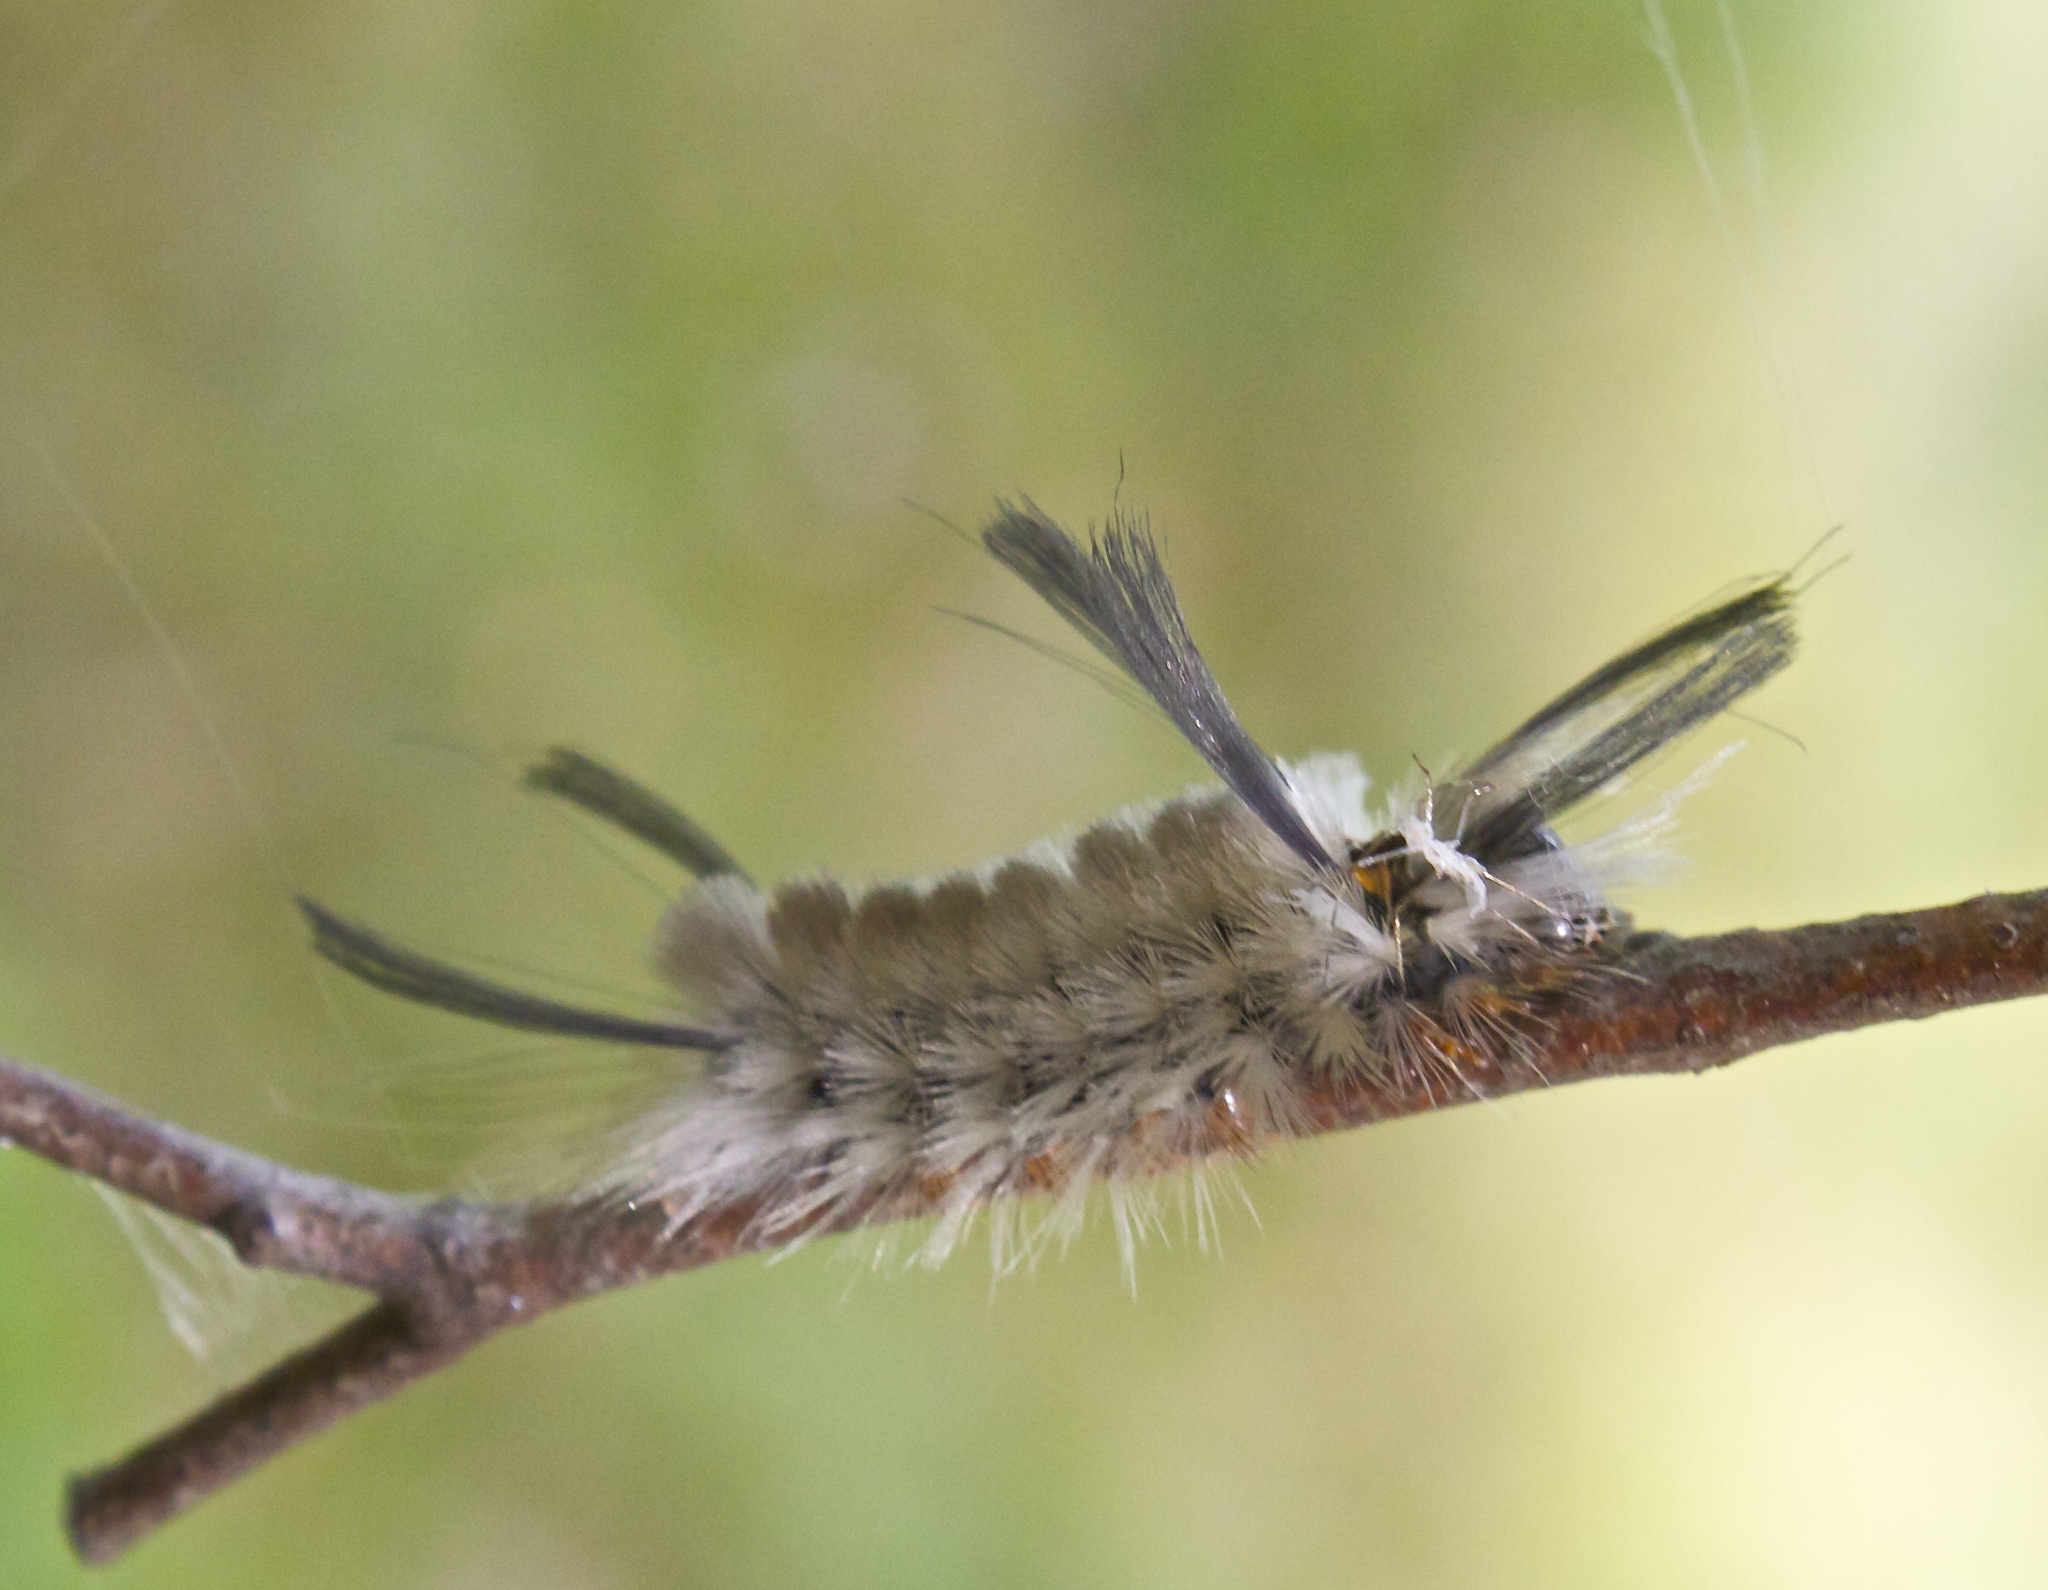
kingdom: Animalia
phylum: Arthropoda
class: Insecta
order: Lepidoptera
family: Erebidae
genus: Halysidota
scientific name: Halysidota tessellaris
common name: Banded tussock moth
